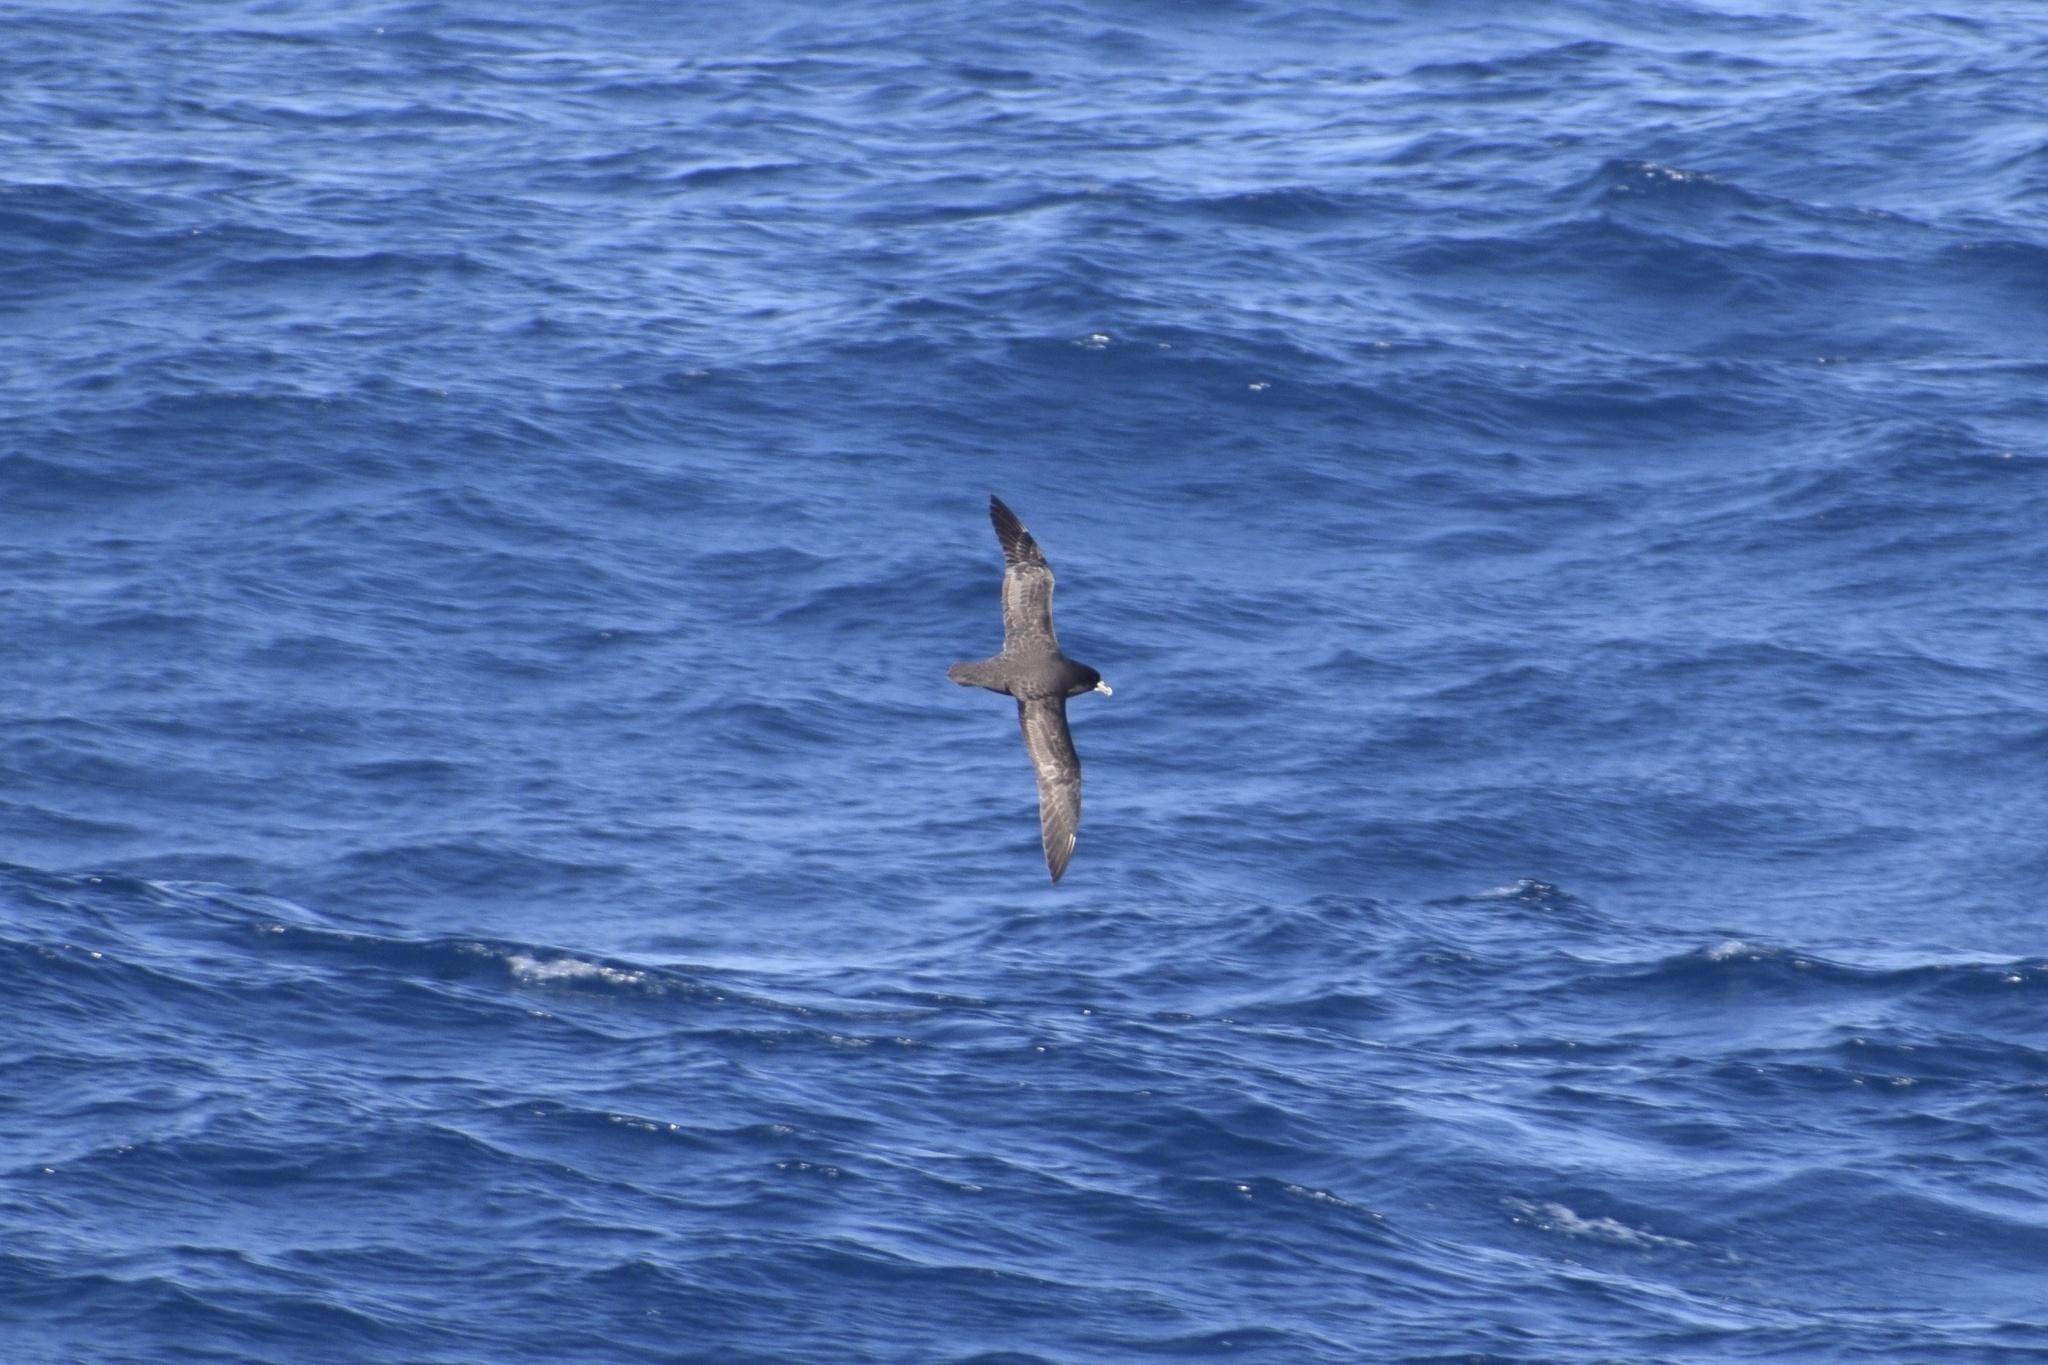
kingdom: Animalia
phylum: Chordata
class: Aves
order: Procellariiformes
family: Procellariidae
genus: Procellaria
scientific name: Procellaria aequinoctialis
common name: White-chinned petrel
